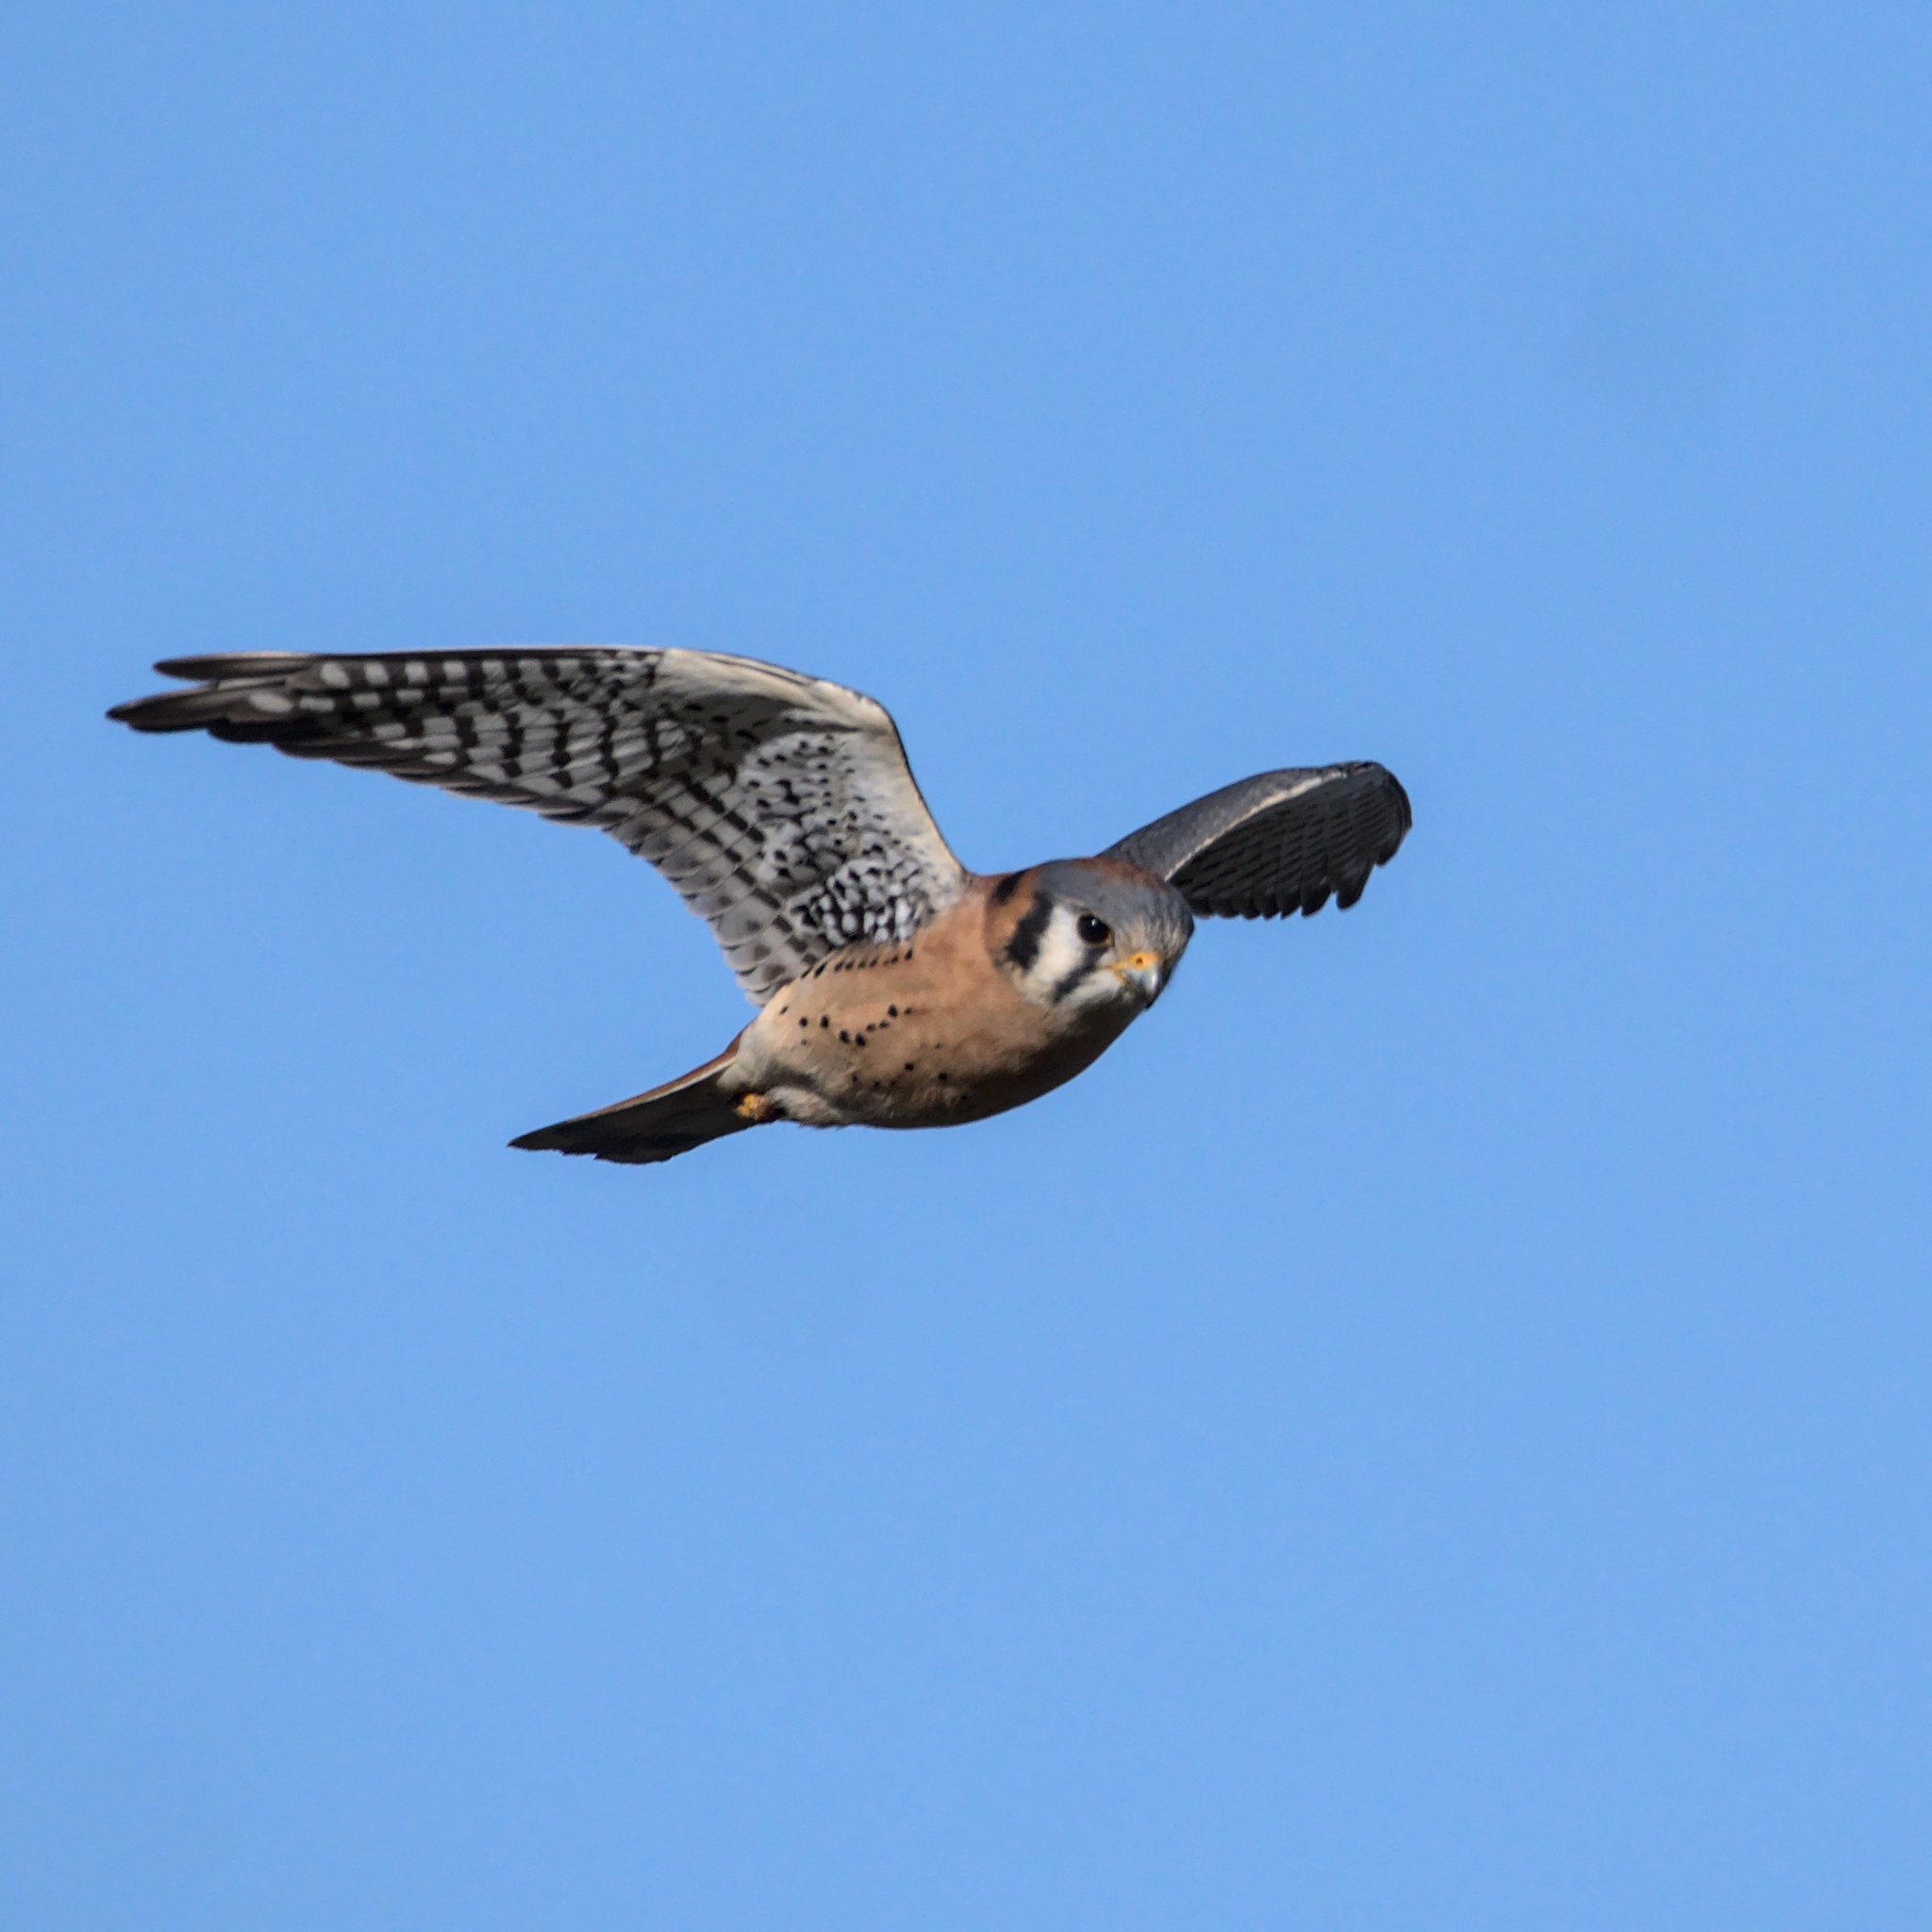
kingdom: Animalia
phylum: Chordata
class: Aves
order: Falconiformes
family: Falconidae
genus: Falco
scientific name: Falco sparverius
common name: American kestrel
